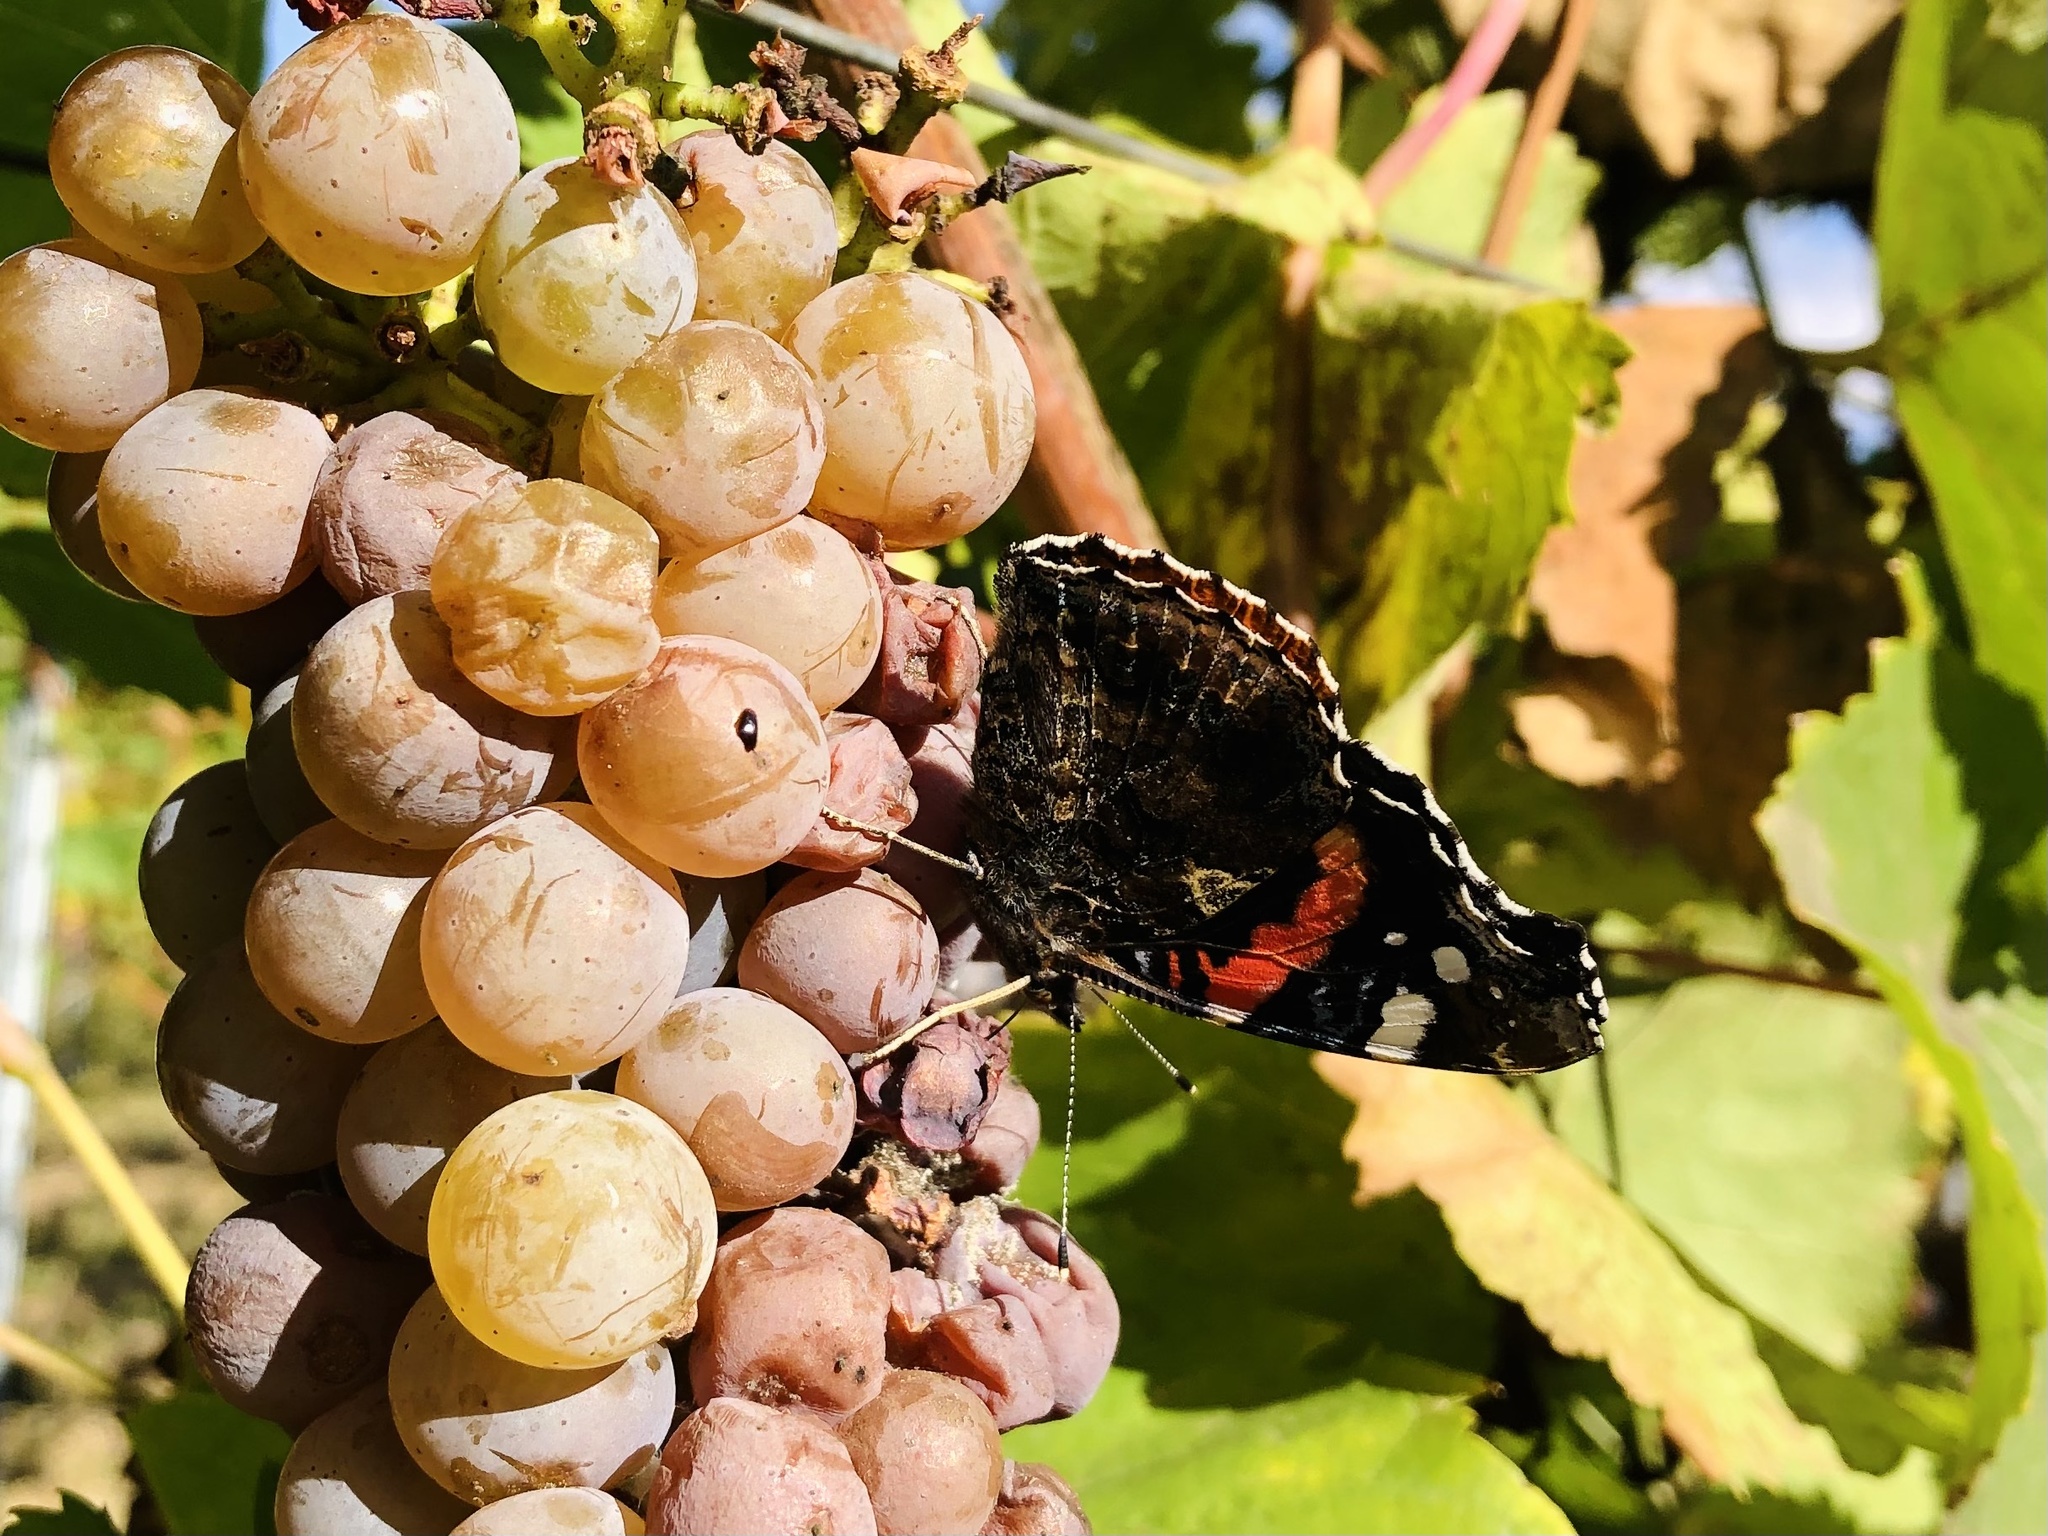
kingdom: Animalia
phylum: Arthropoda
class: Insecta
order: Lepidoptera
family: Nymphalidae
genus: Vanessa
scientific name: Vanessa atalanta
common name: Red admiral
